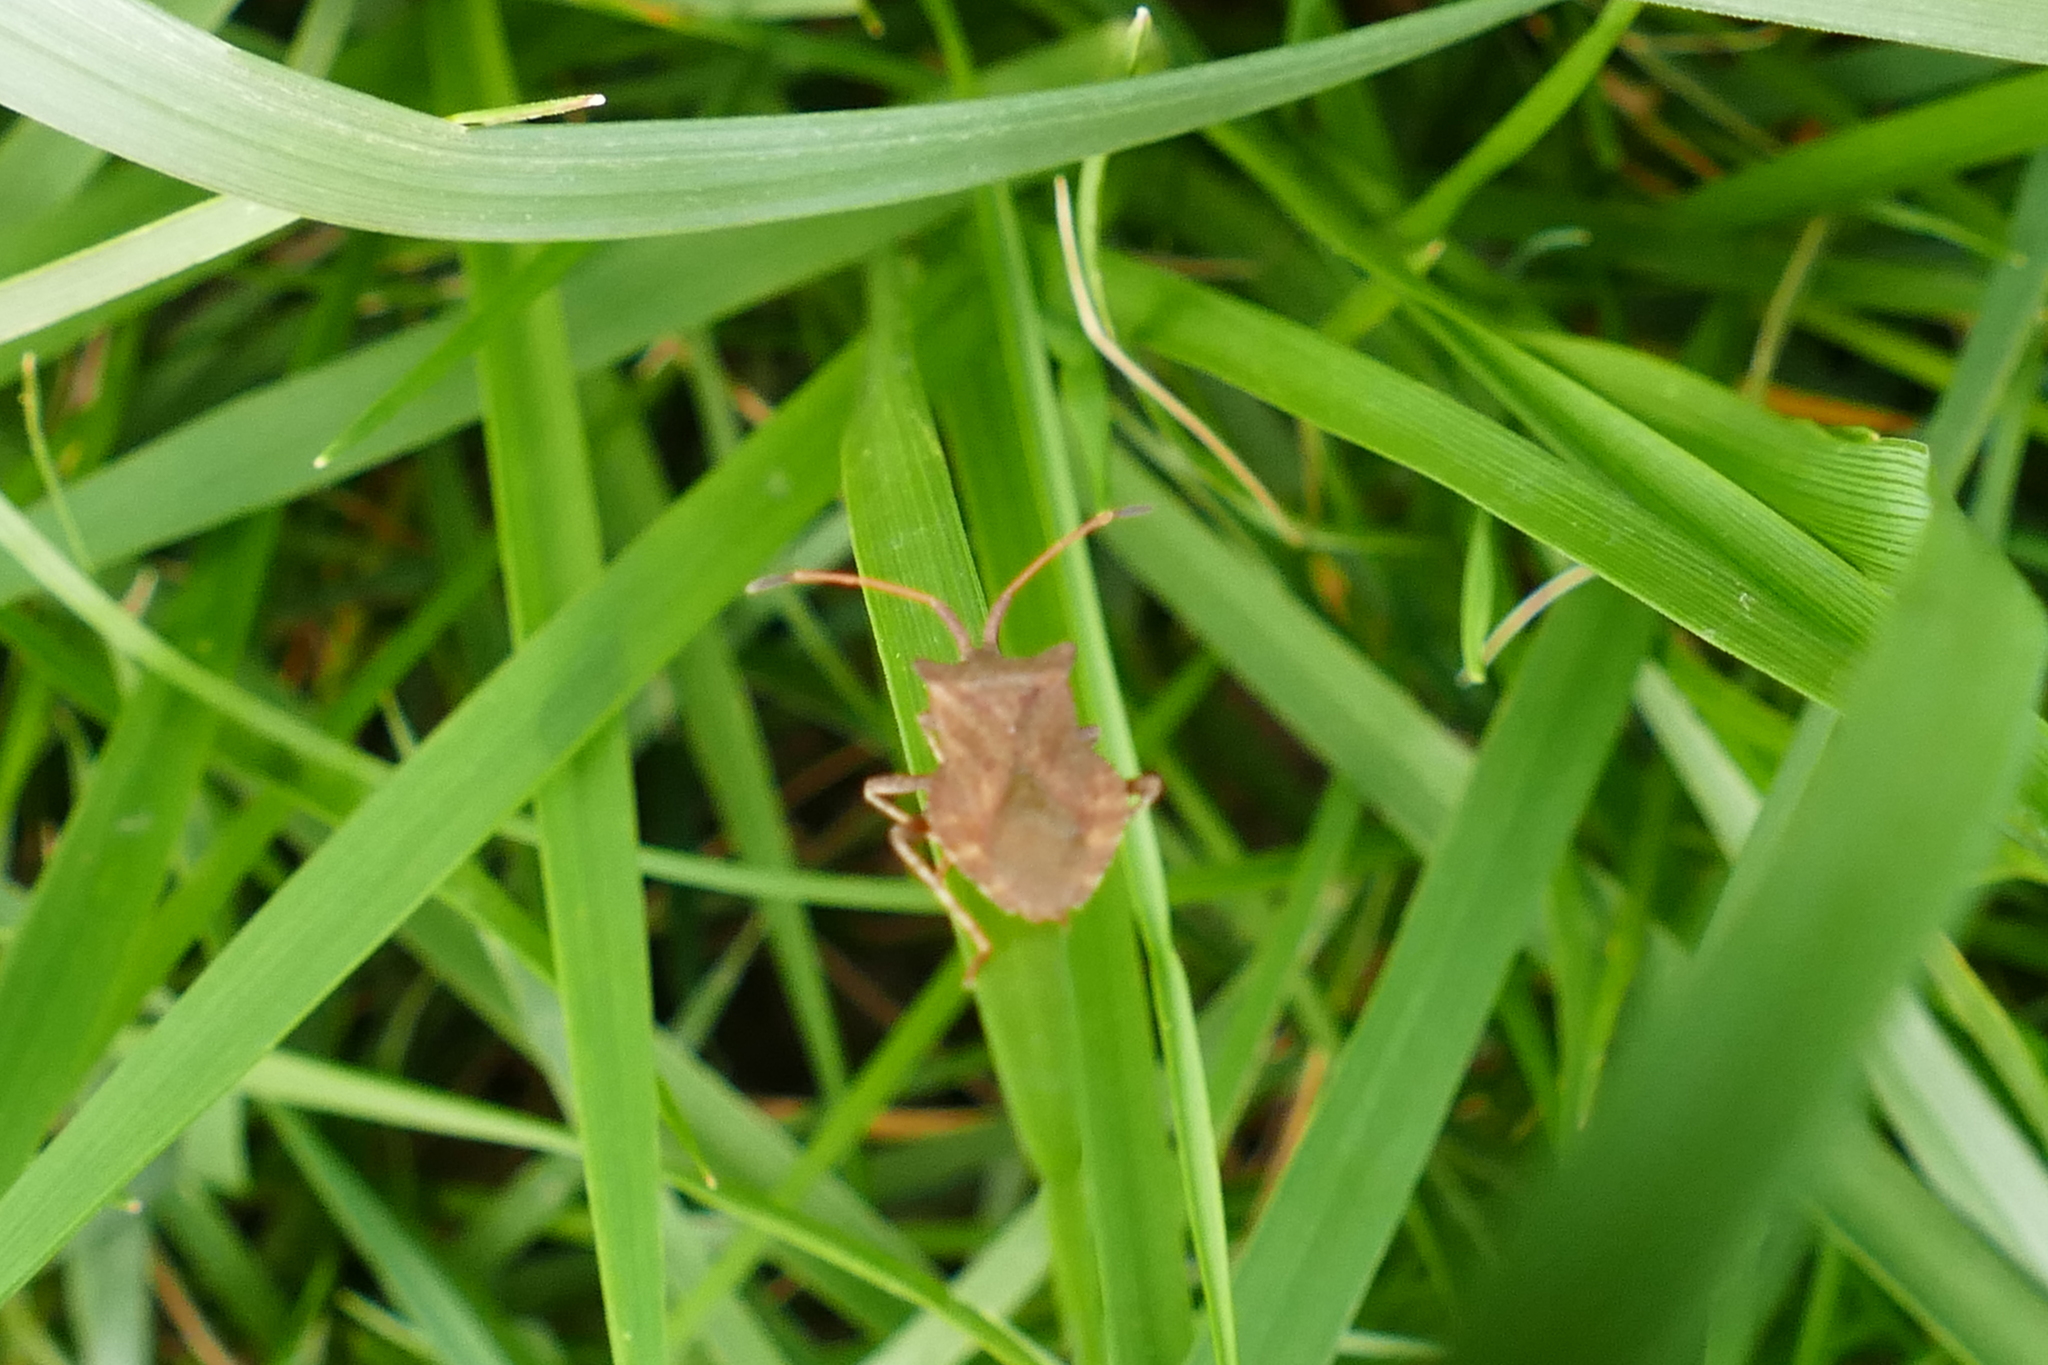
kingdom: Animalia
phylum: Arthropoda
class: Insecta
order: Hemiptera
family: Coreidae
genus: Coreus
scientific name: Coreus marginatus
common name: Dock bug
